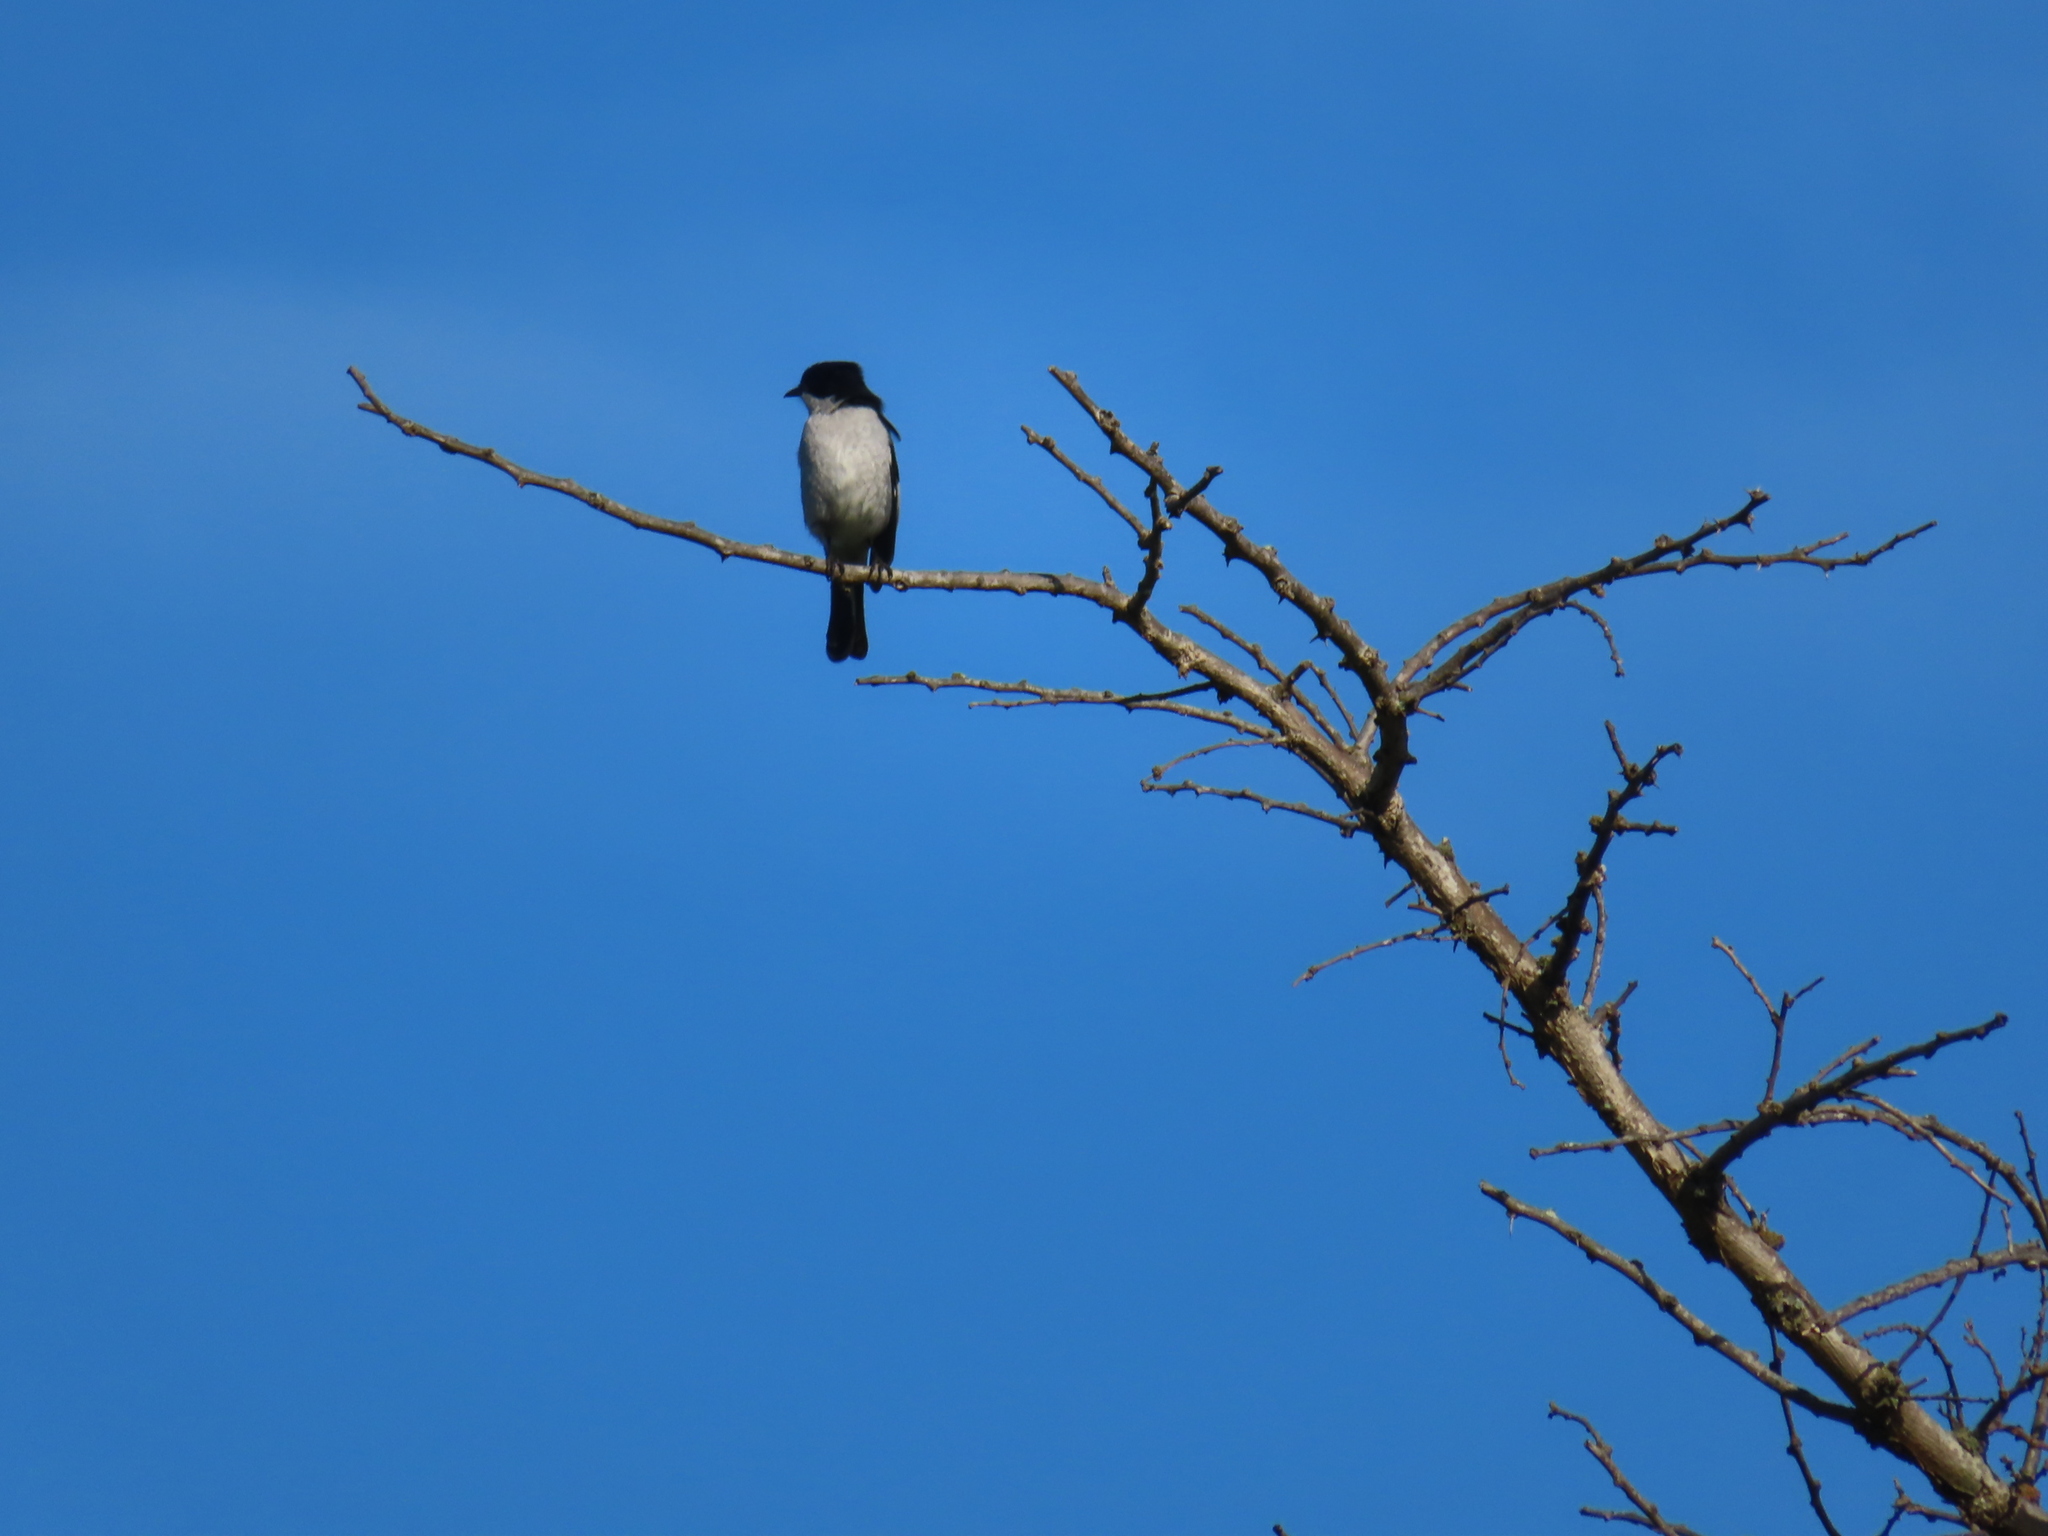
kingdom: Animalia
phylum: Chordata
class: Aves
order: Passeriformes
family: Muscicapidae
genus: Sigelus
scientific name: Sigelus silens
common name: Fiscal flycatcher
